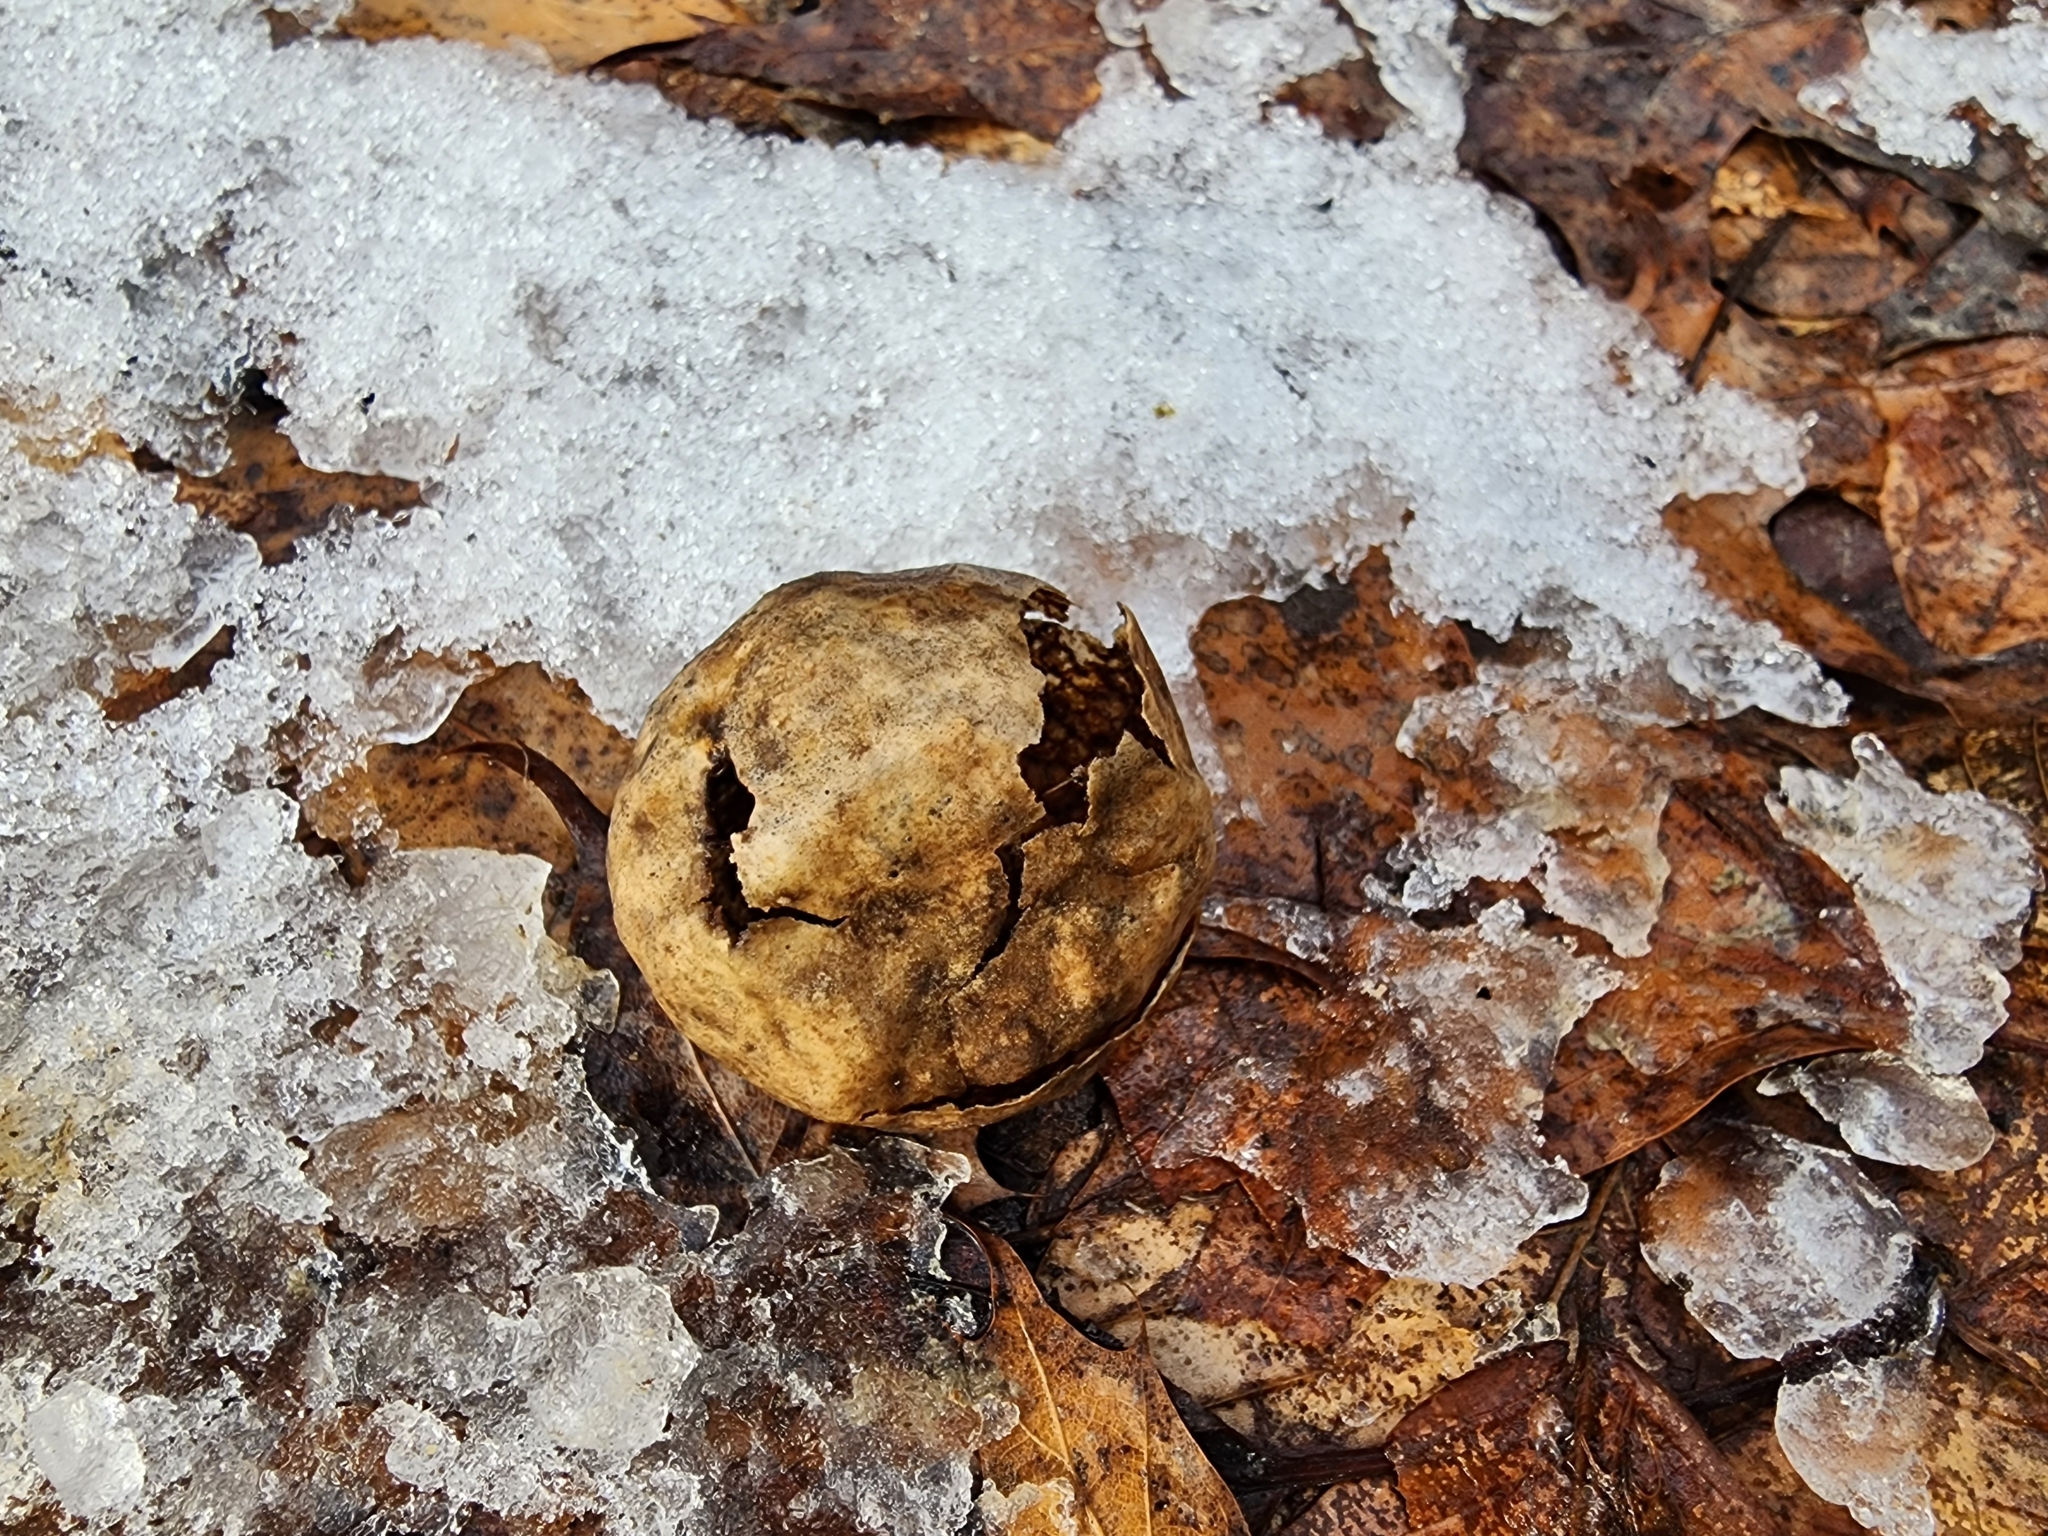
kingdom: Animalia
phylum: Arthropoda
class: Insecta
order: Hymenoptera
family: Cynipidae
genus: Amphibolips
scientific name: Amphibolips
